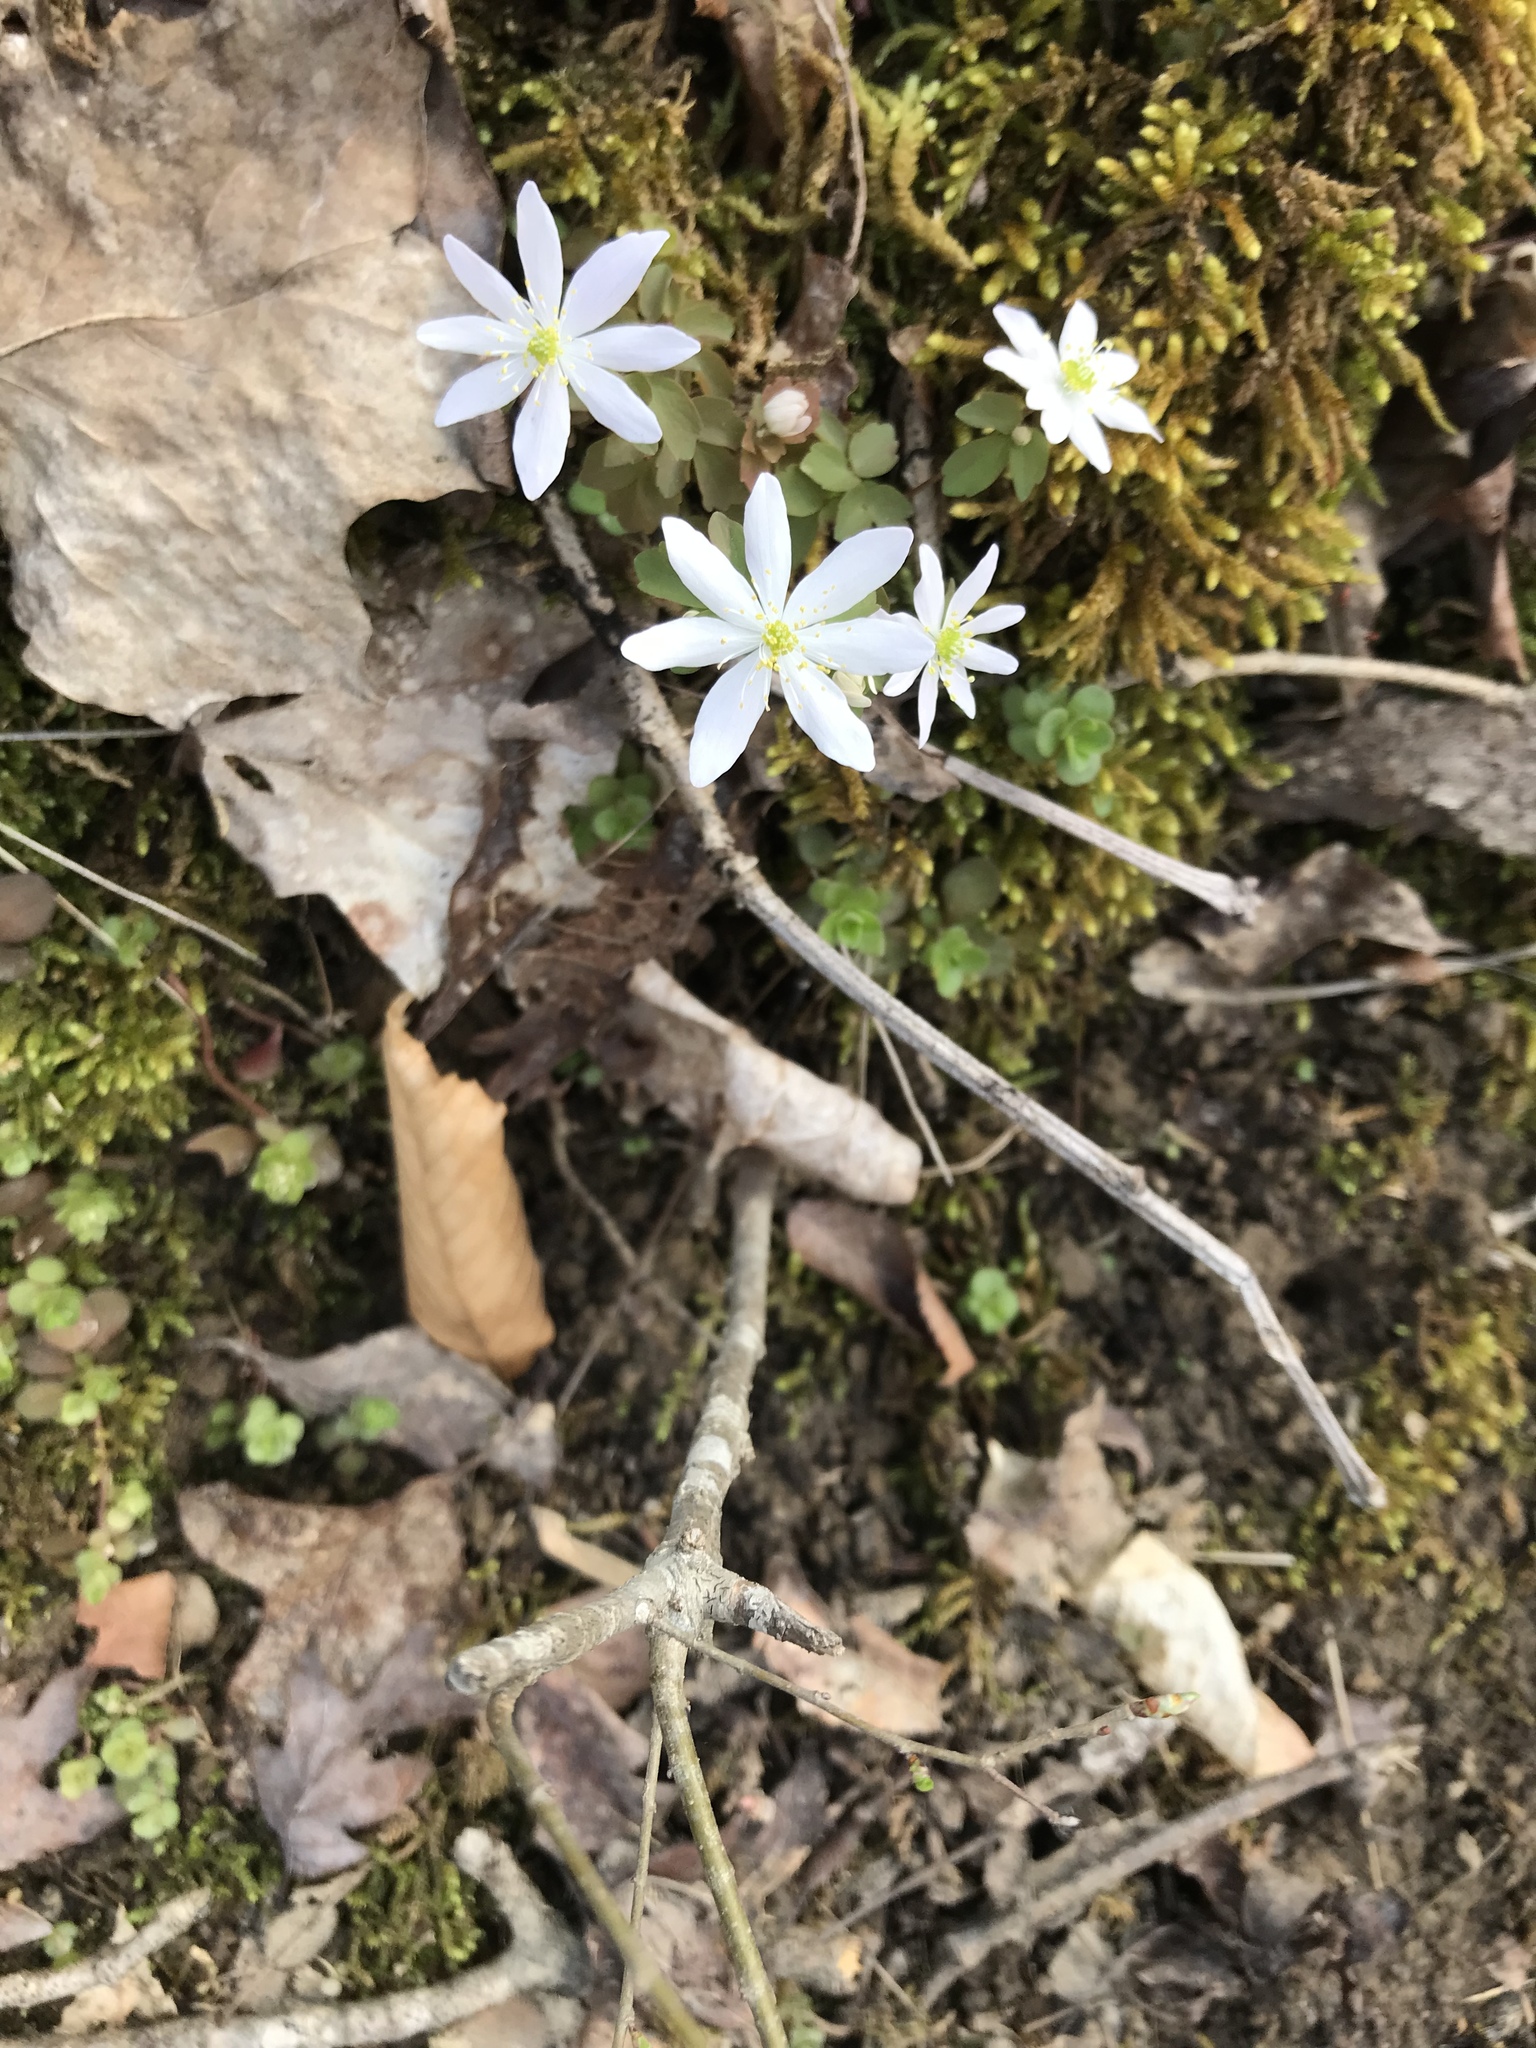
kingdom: Plantae
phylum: Tracheophyta
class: Magnoliopsida
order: Ranunculales
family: Ranunculaceae
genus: Thalictrum
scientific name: Thalictrum thalictroides
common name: Rue-anemone
